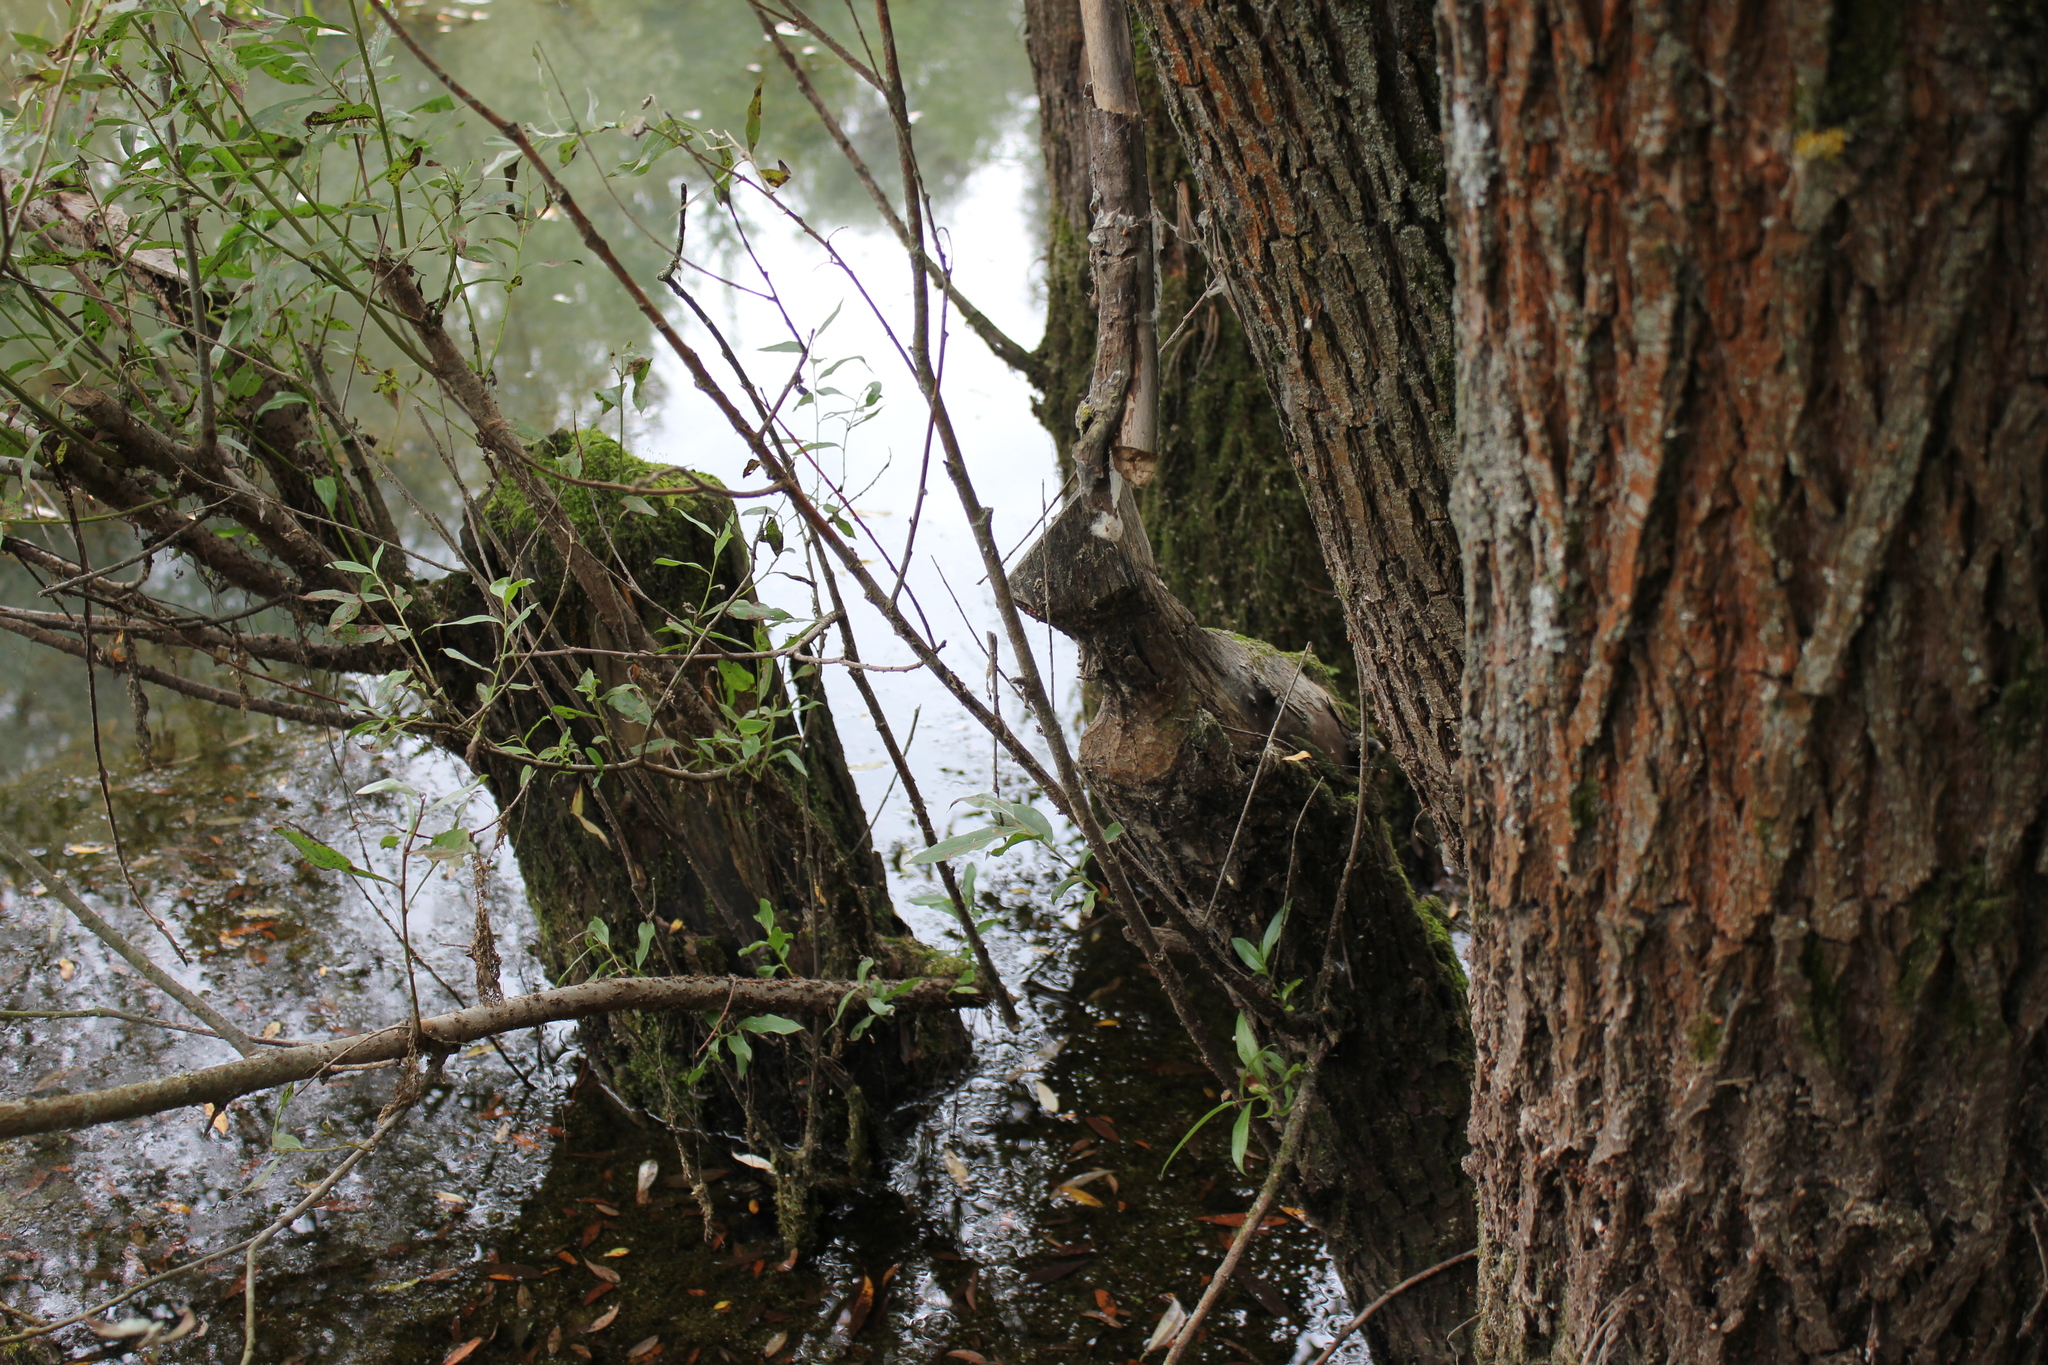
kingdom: Animalia
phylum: Chordata
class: Mammalia
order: Rodentia
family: Castoridae
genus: Castor
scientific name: Castor fiber
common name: Eurasian beaver
